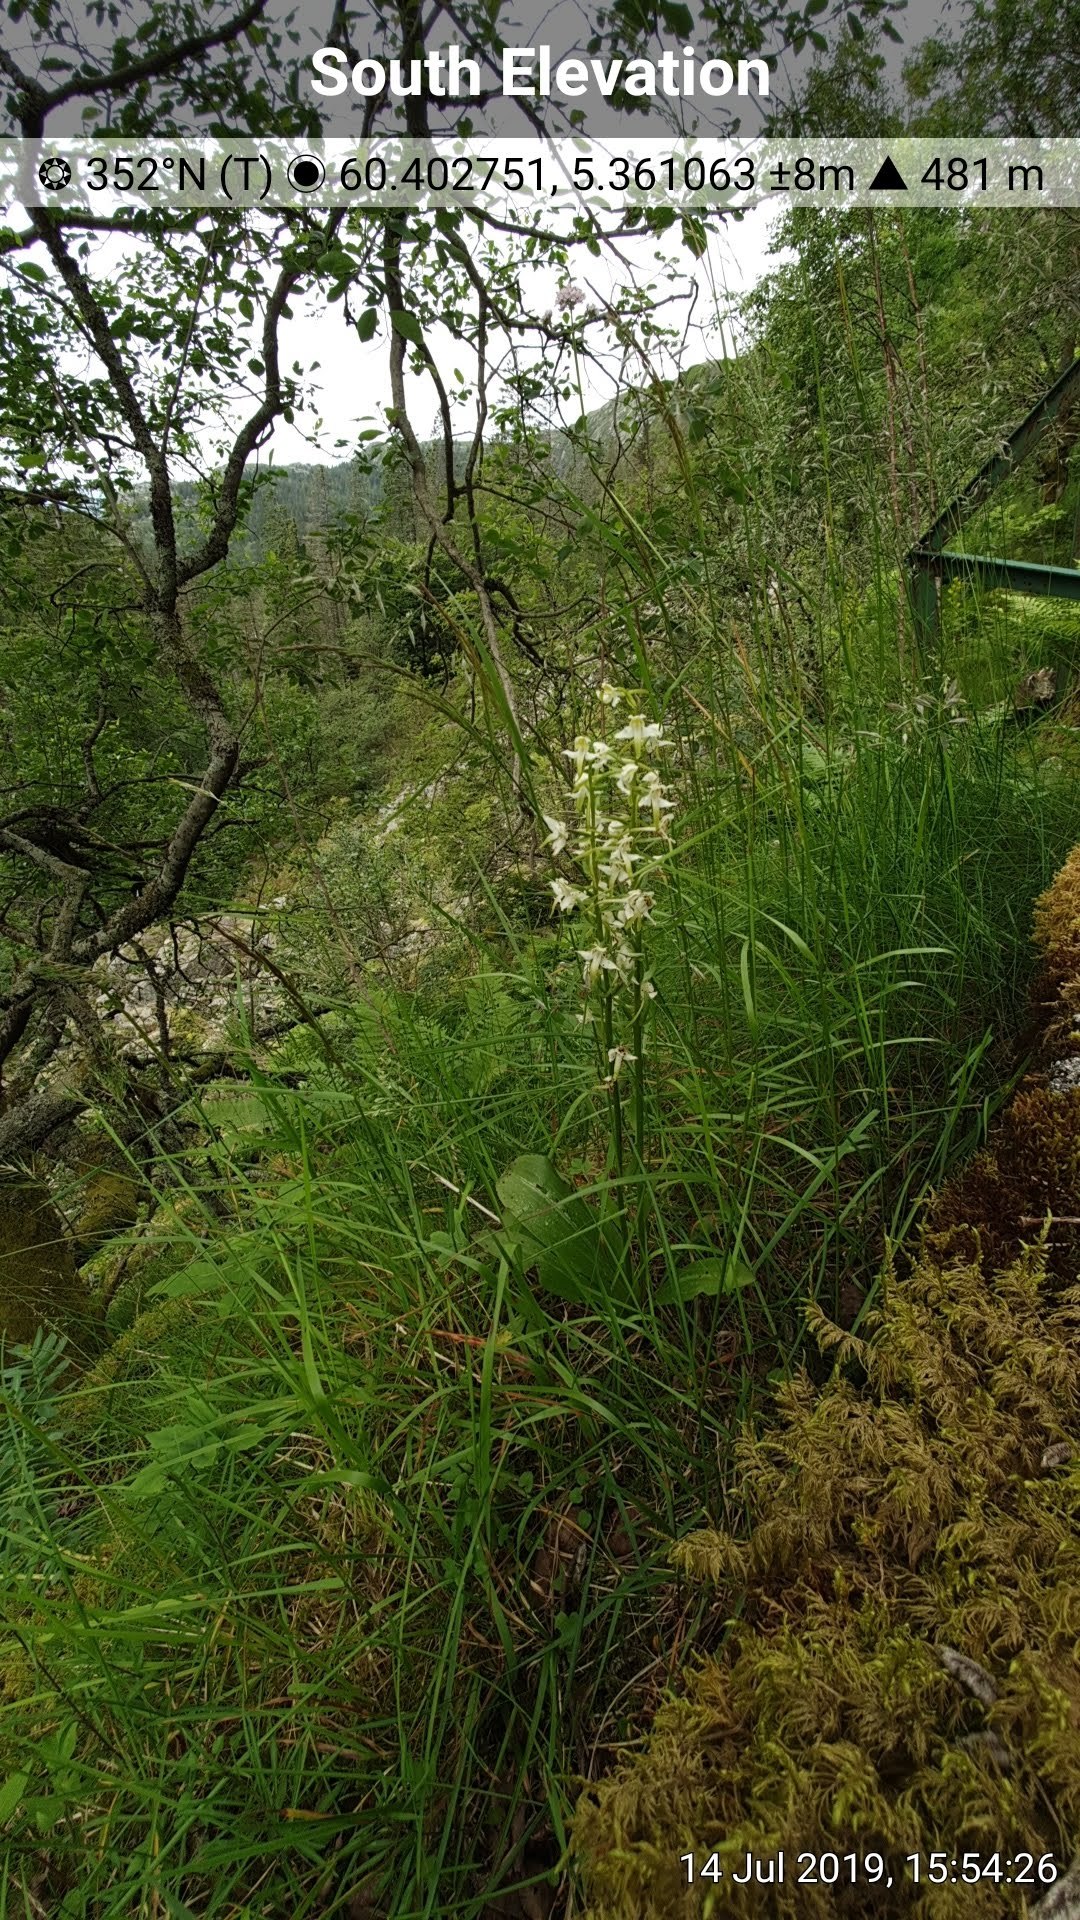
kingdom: Plantae
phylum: Tracheophyta
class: Liliopsida
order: Asparagales
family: Orchidaceae
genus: Platanthera
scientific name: Platanthera chlorantha
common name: Greater butterfly-orchid
